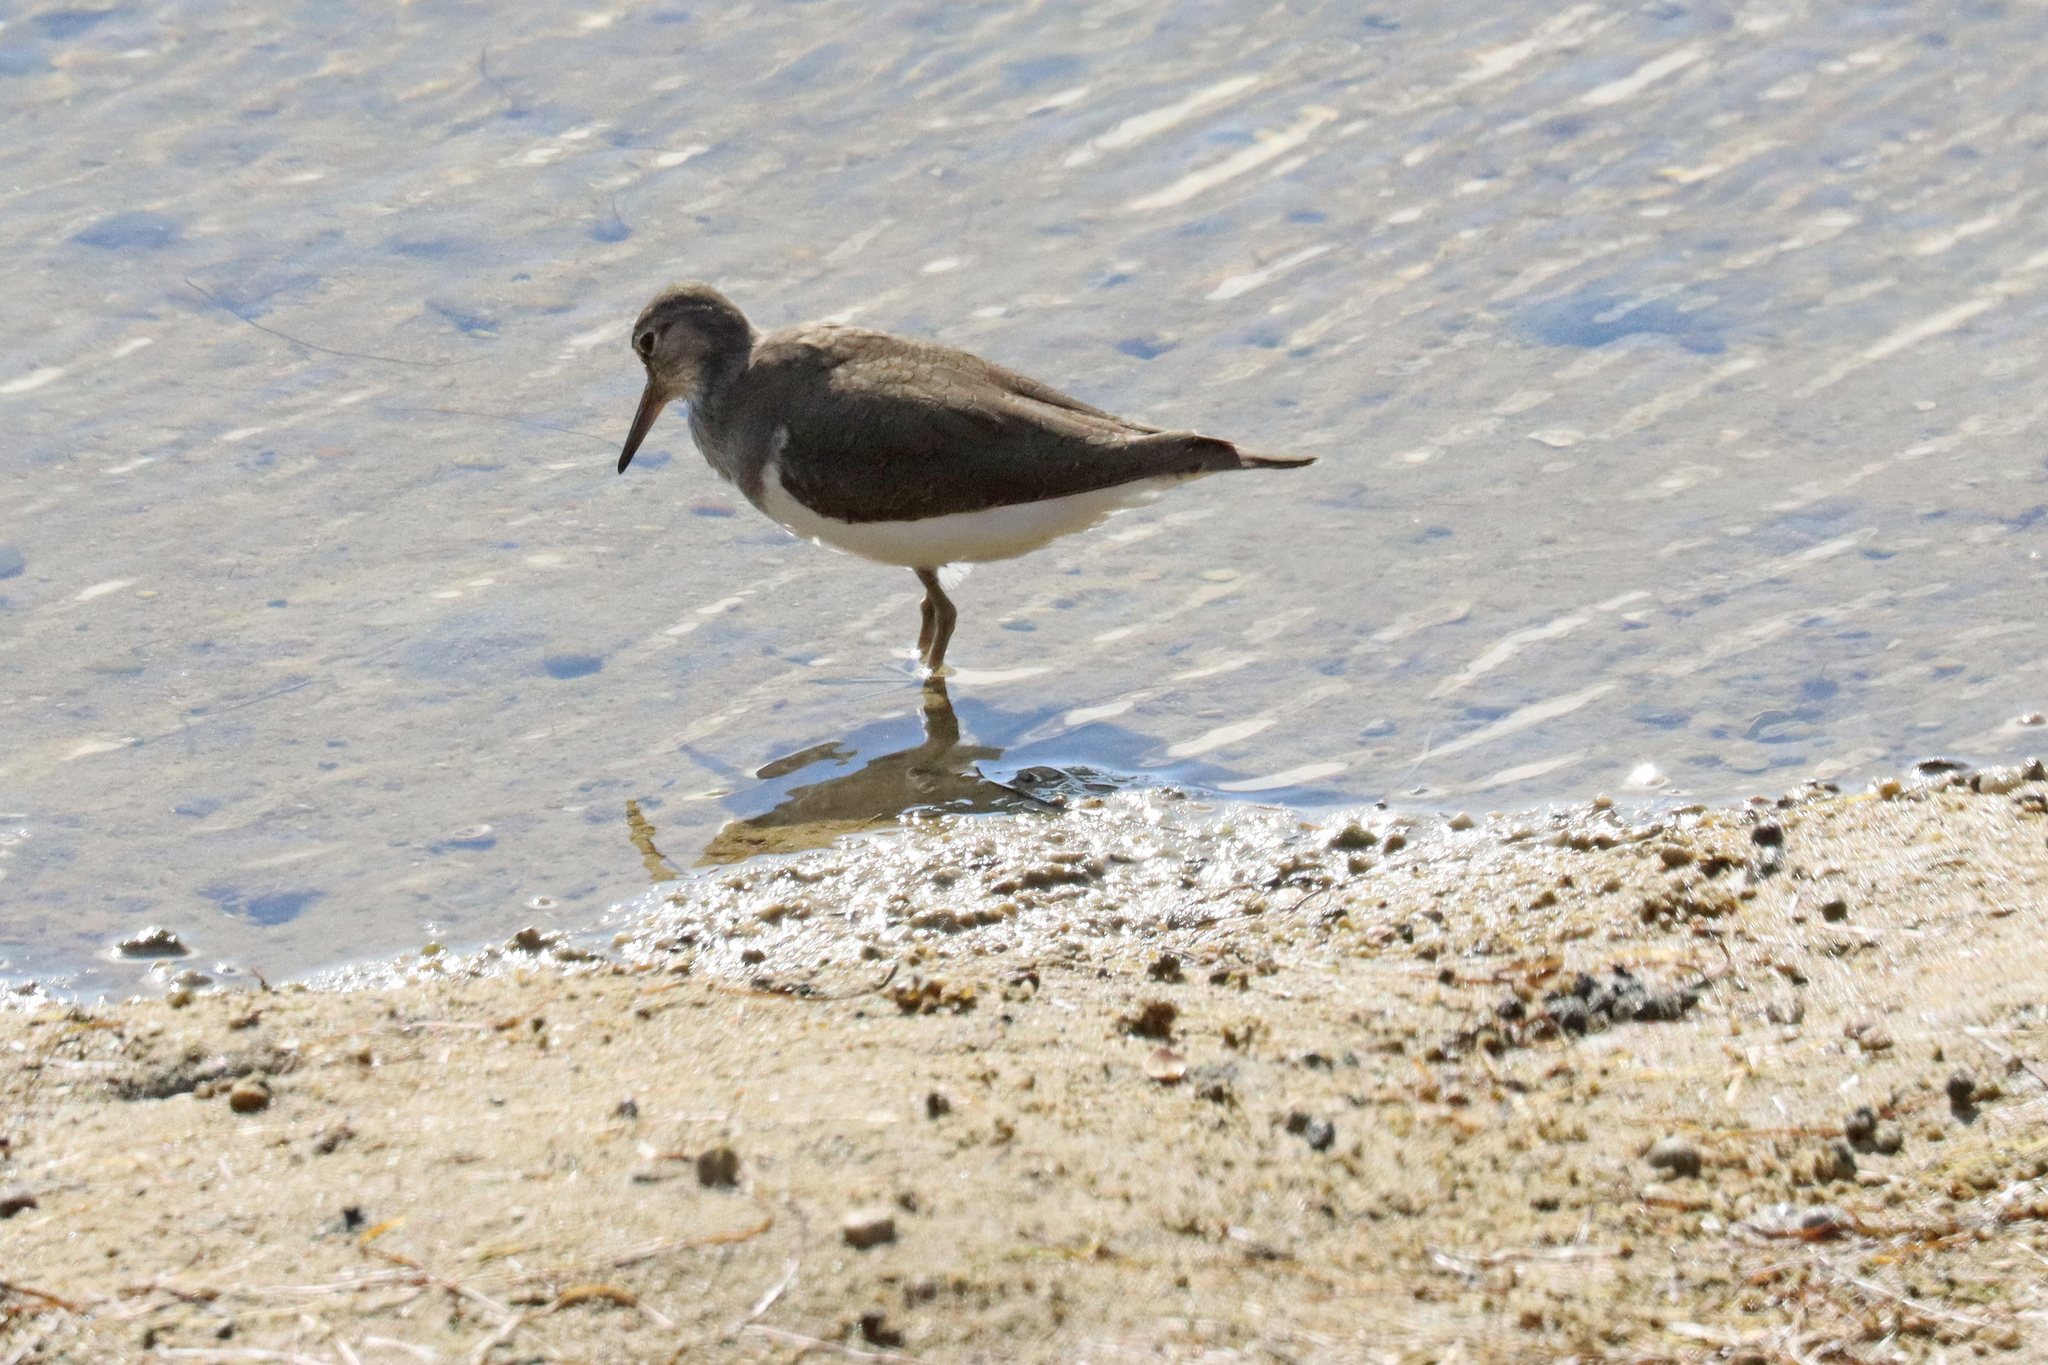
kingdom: Animalia
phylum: Chordata
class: Aves
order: Charadriiformes
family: Scolopacidae
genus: Actitis
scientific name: Actitis hypoleucos
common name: Common sandpiper
